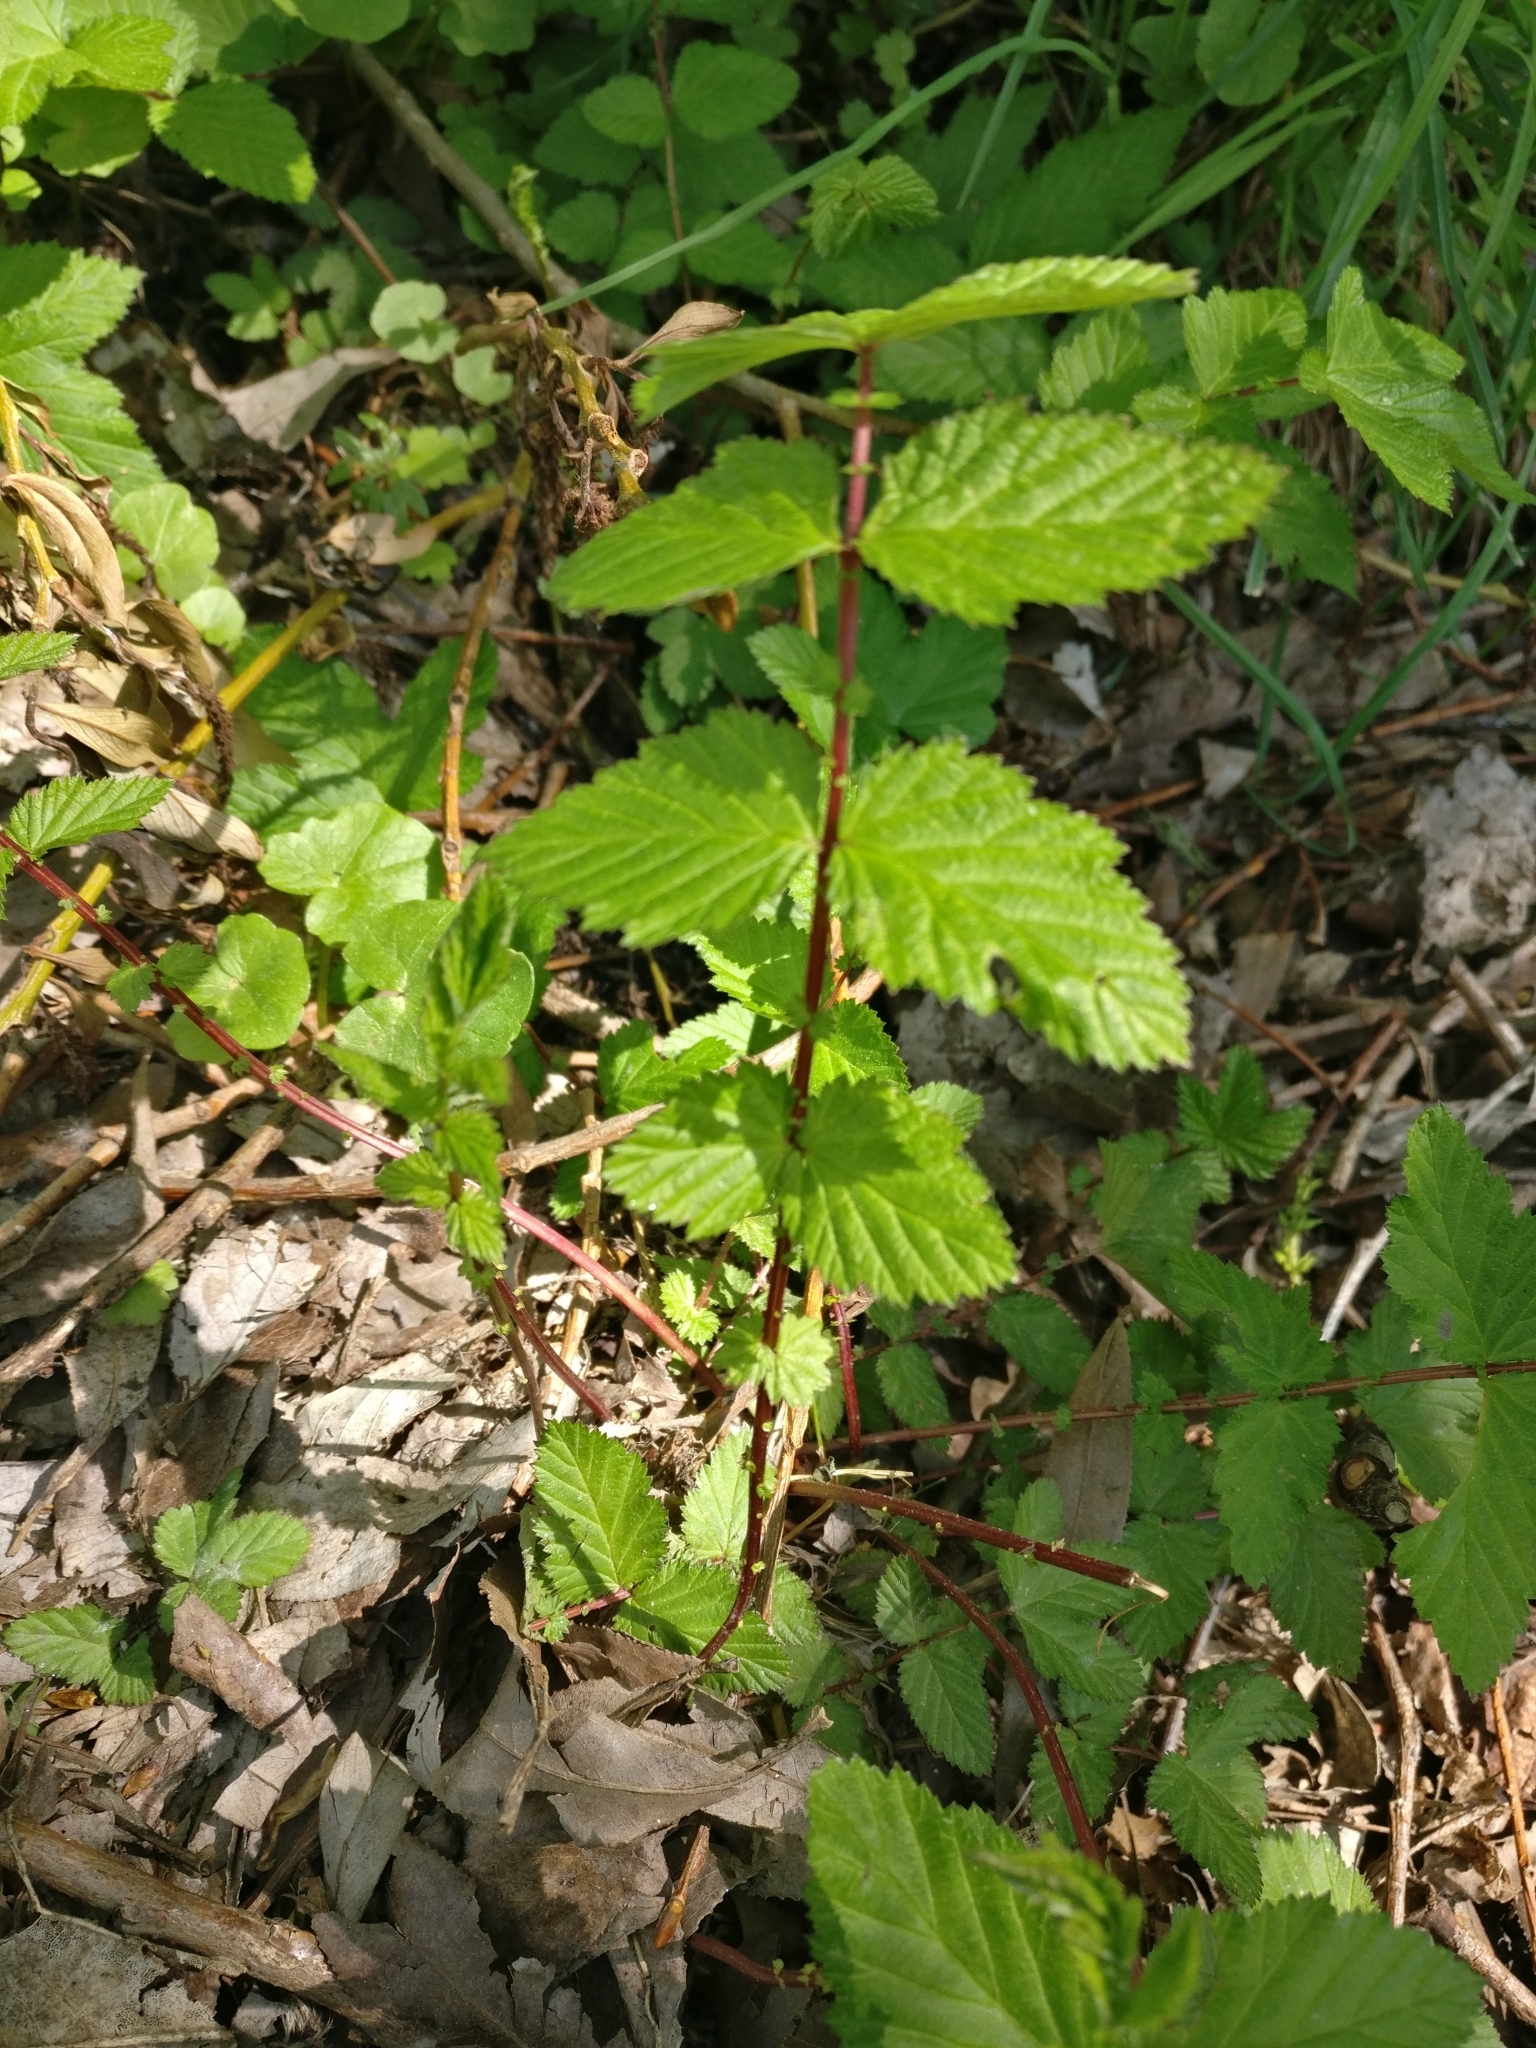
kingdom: Plantae
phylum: Tracheophyta
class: Magnoliopsida
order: Rosales
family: Rosaceae
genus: Filipendula
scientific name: Filipendula ulmaria
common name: Meadowsweet
